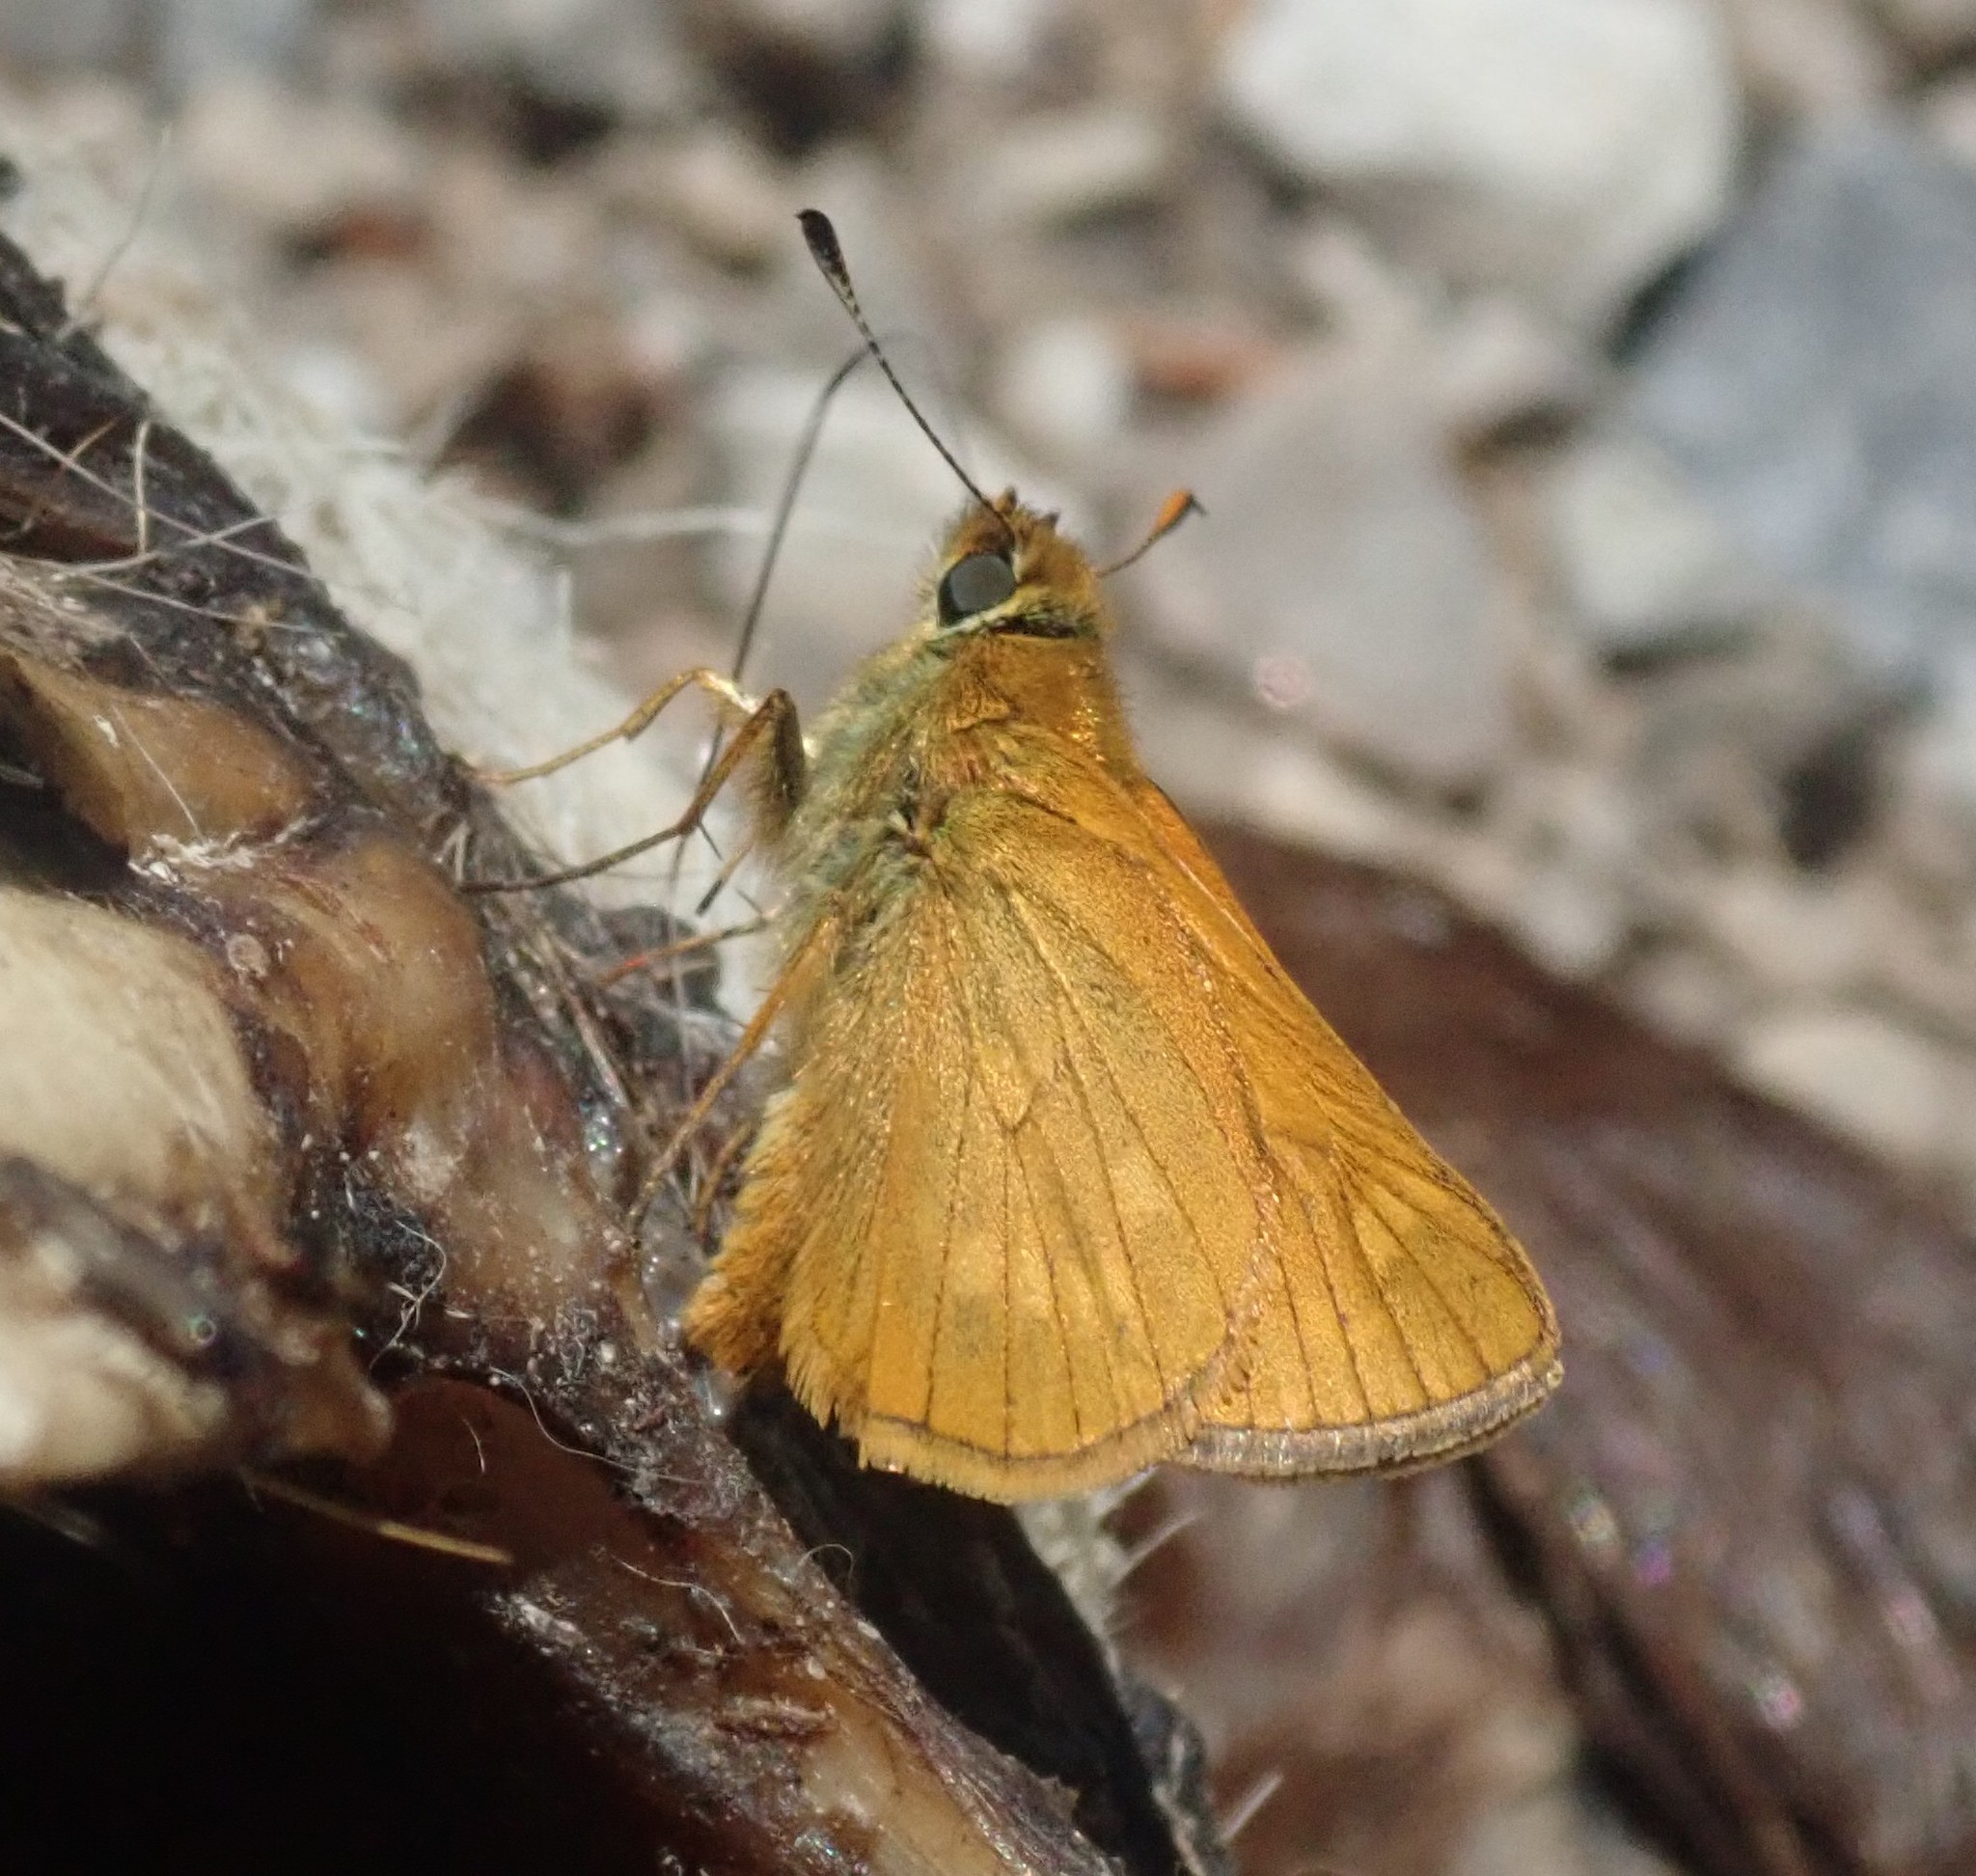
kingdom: Animalia
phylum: Arthropoda
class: Insecta
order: Lepidoptera
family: Hesperiidae
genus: Ochlodes
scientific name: Ochlodes venata
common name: Large skipper
